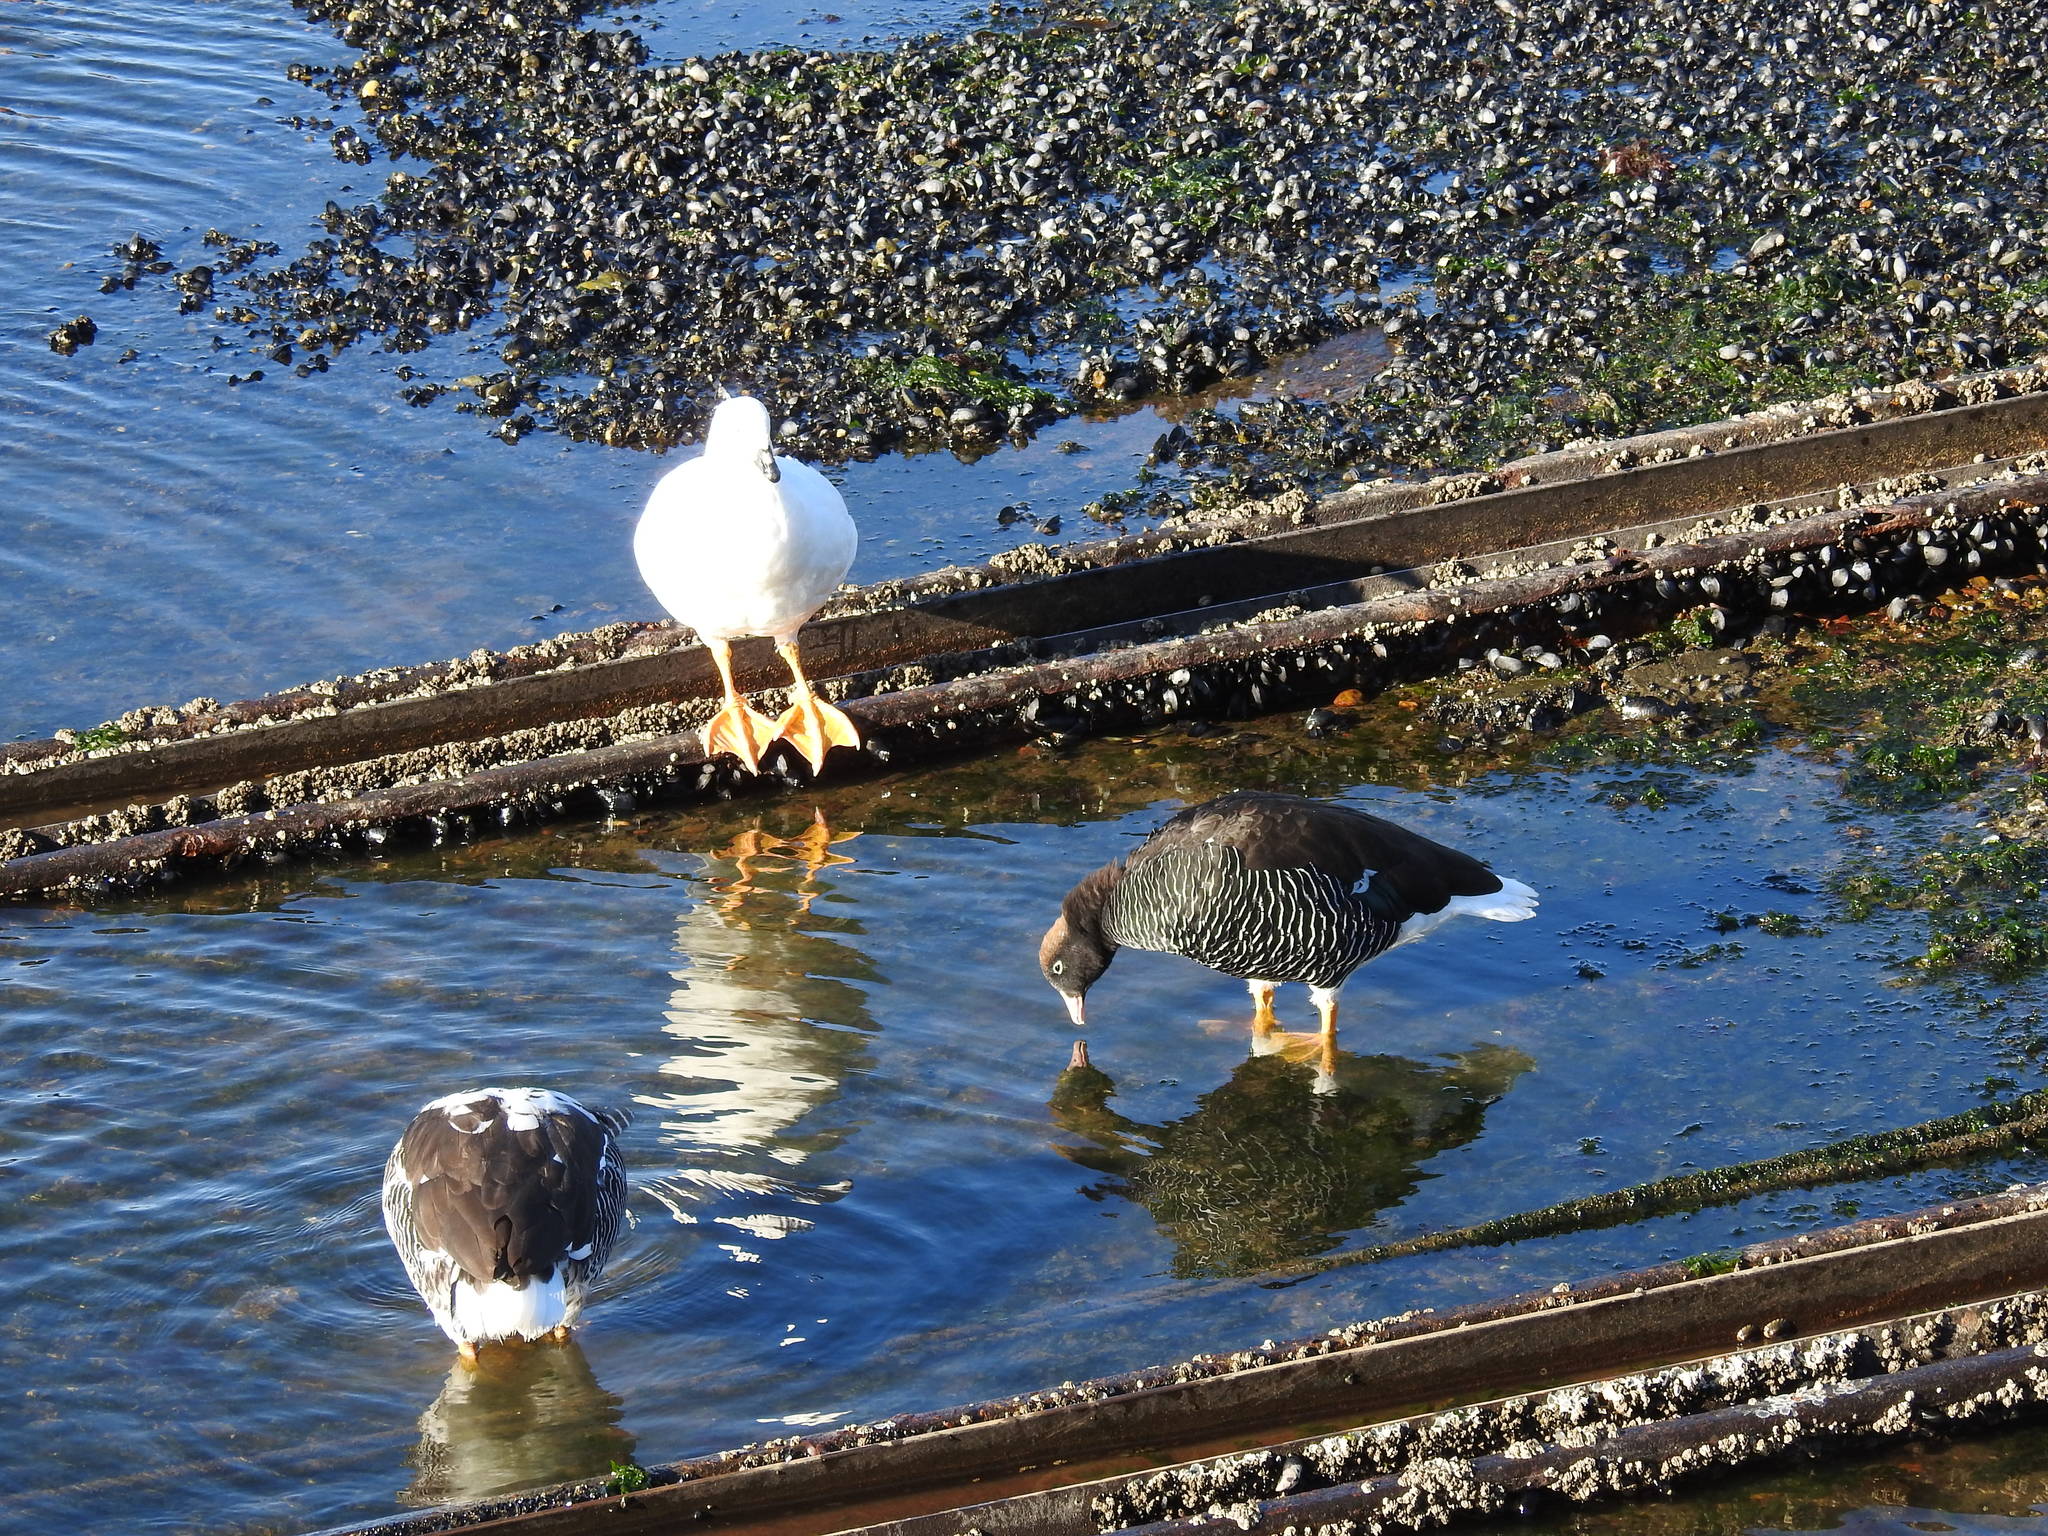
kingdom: Animalia
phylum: Chordata
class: Aves
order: Anseriformes
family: Anatidae
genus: Chloephaga
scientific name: Chloephaga hybrida
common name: Kelp goose
